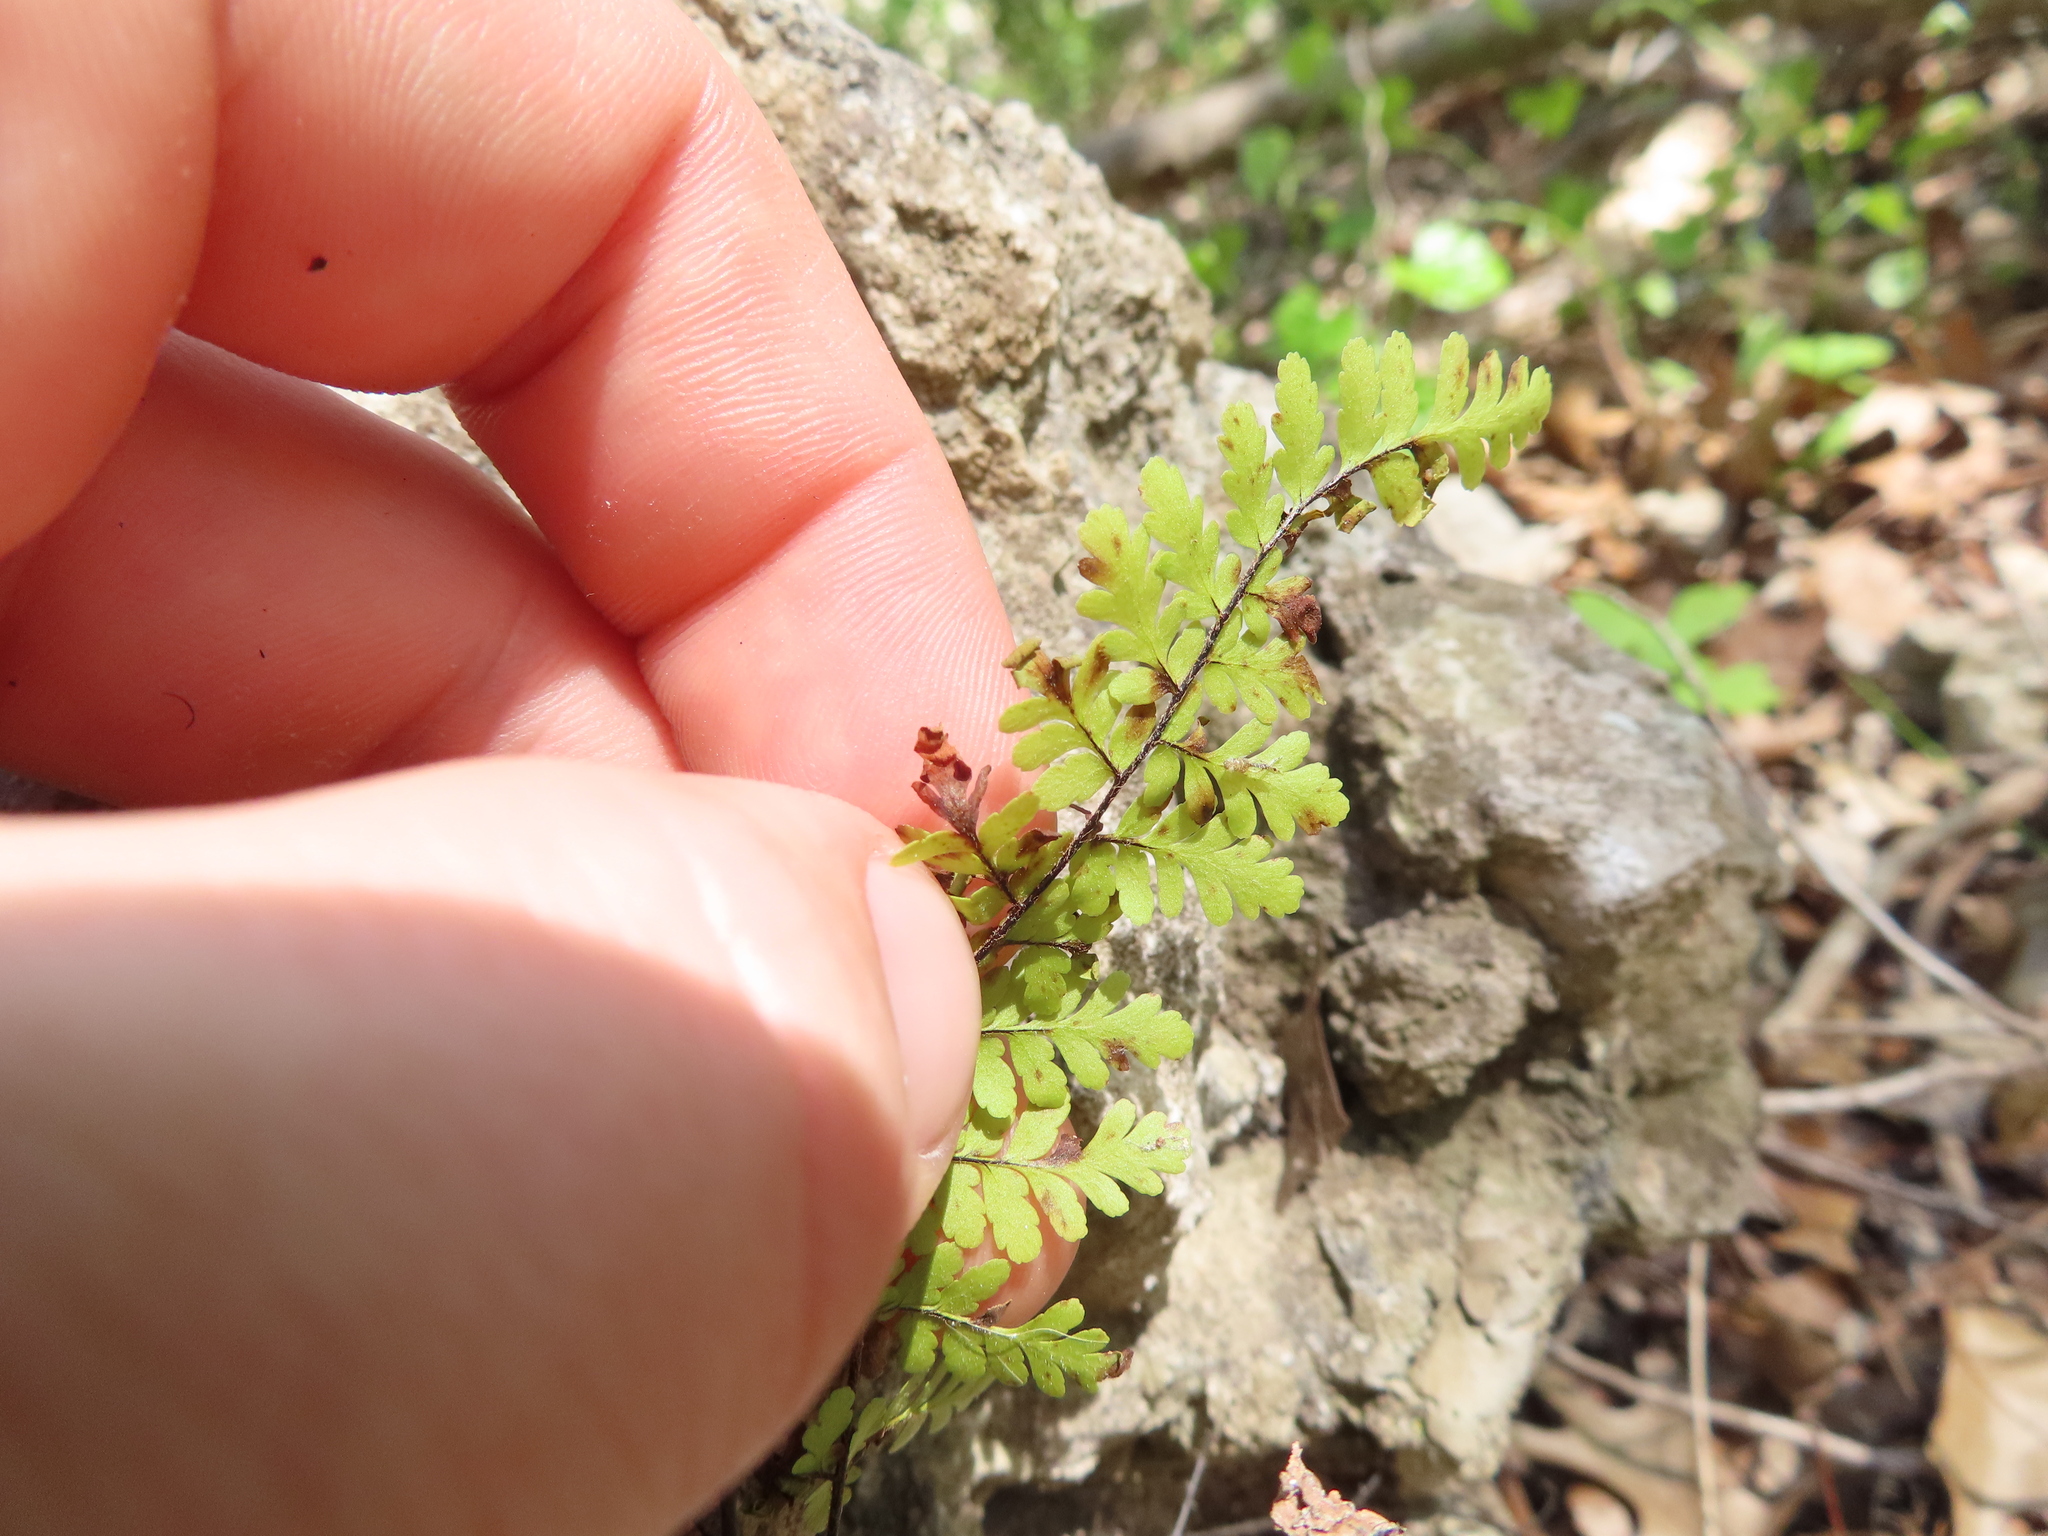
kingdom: Plantae
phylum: Tracheophyta
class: Polypodiopsida
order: Polypodiales
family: Pteridaceae
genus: Myriopteris
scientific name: Myriopteris alabamensis
